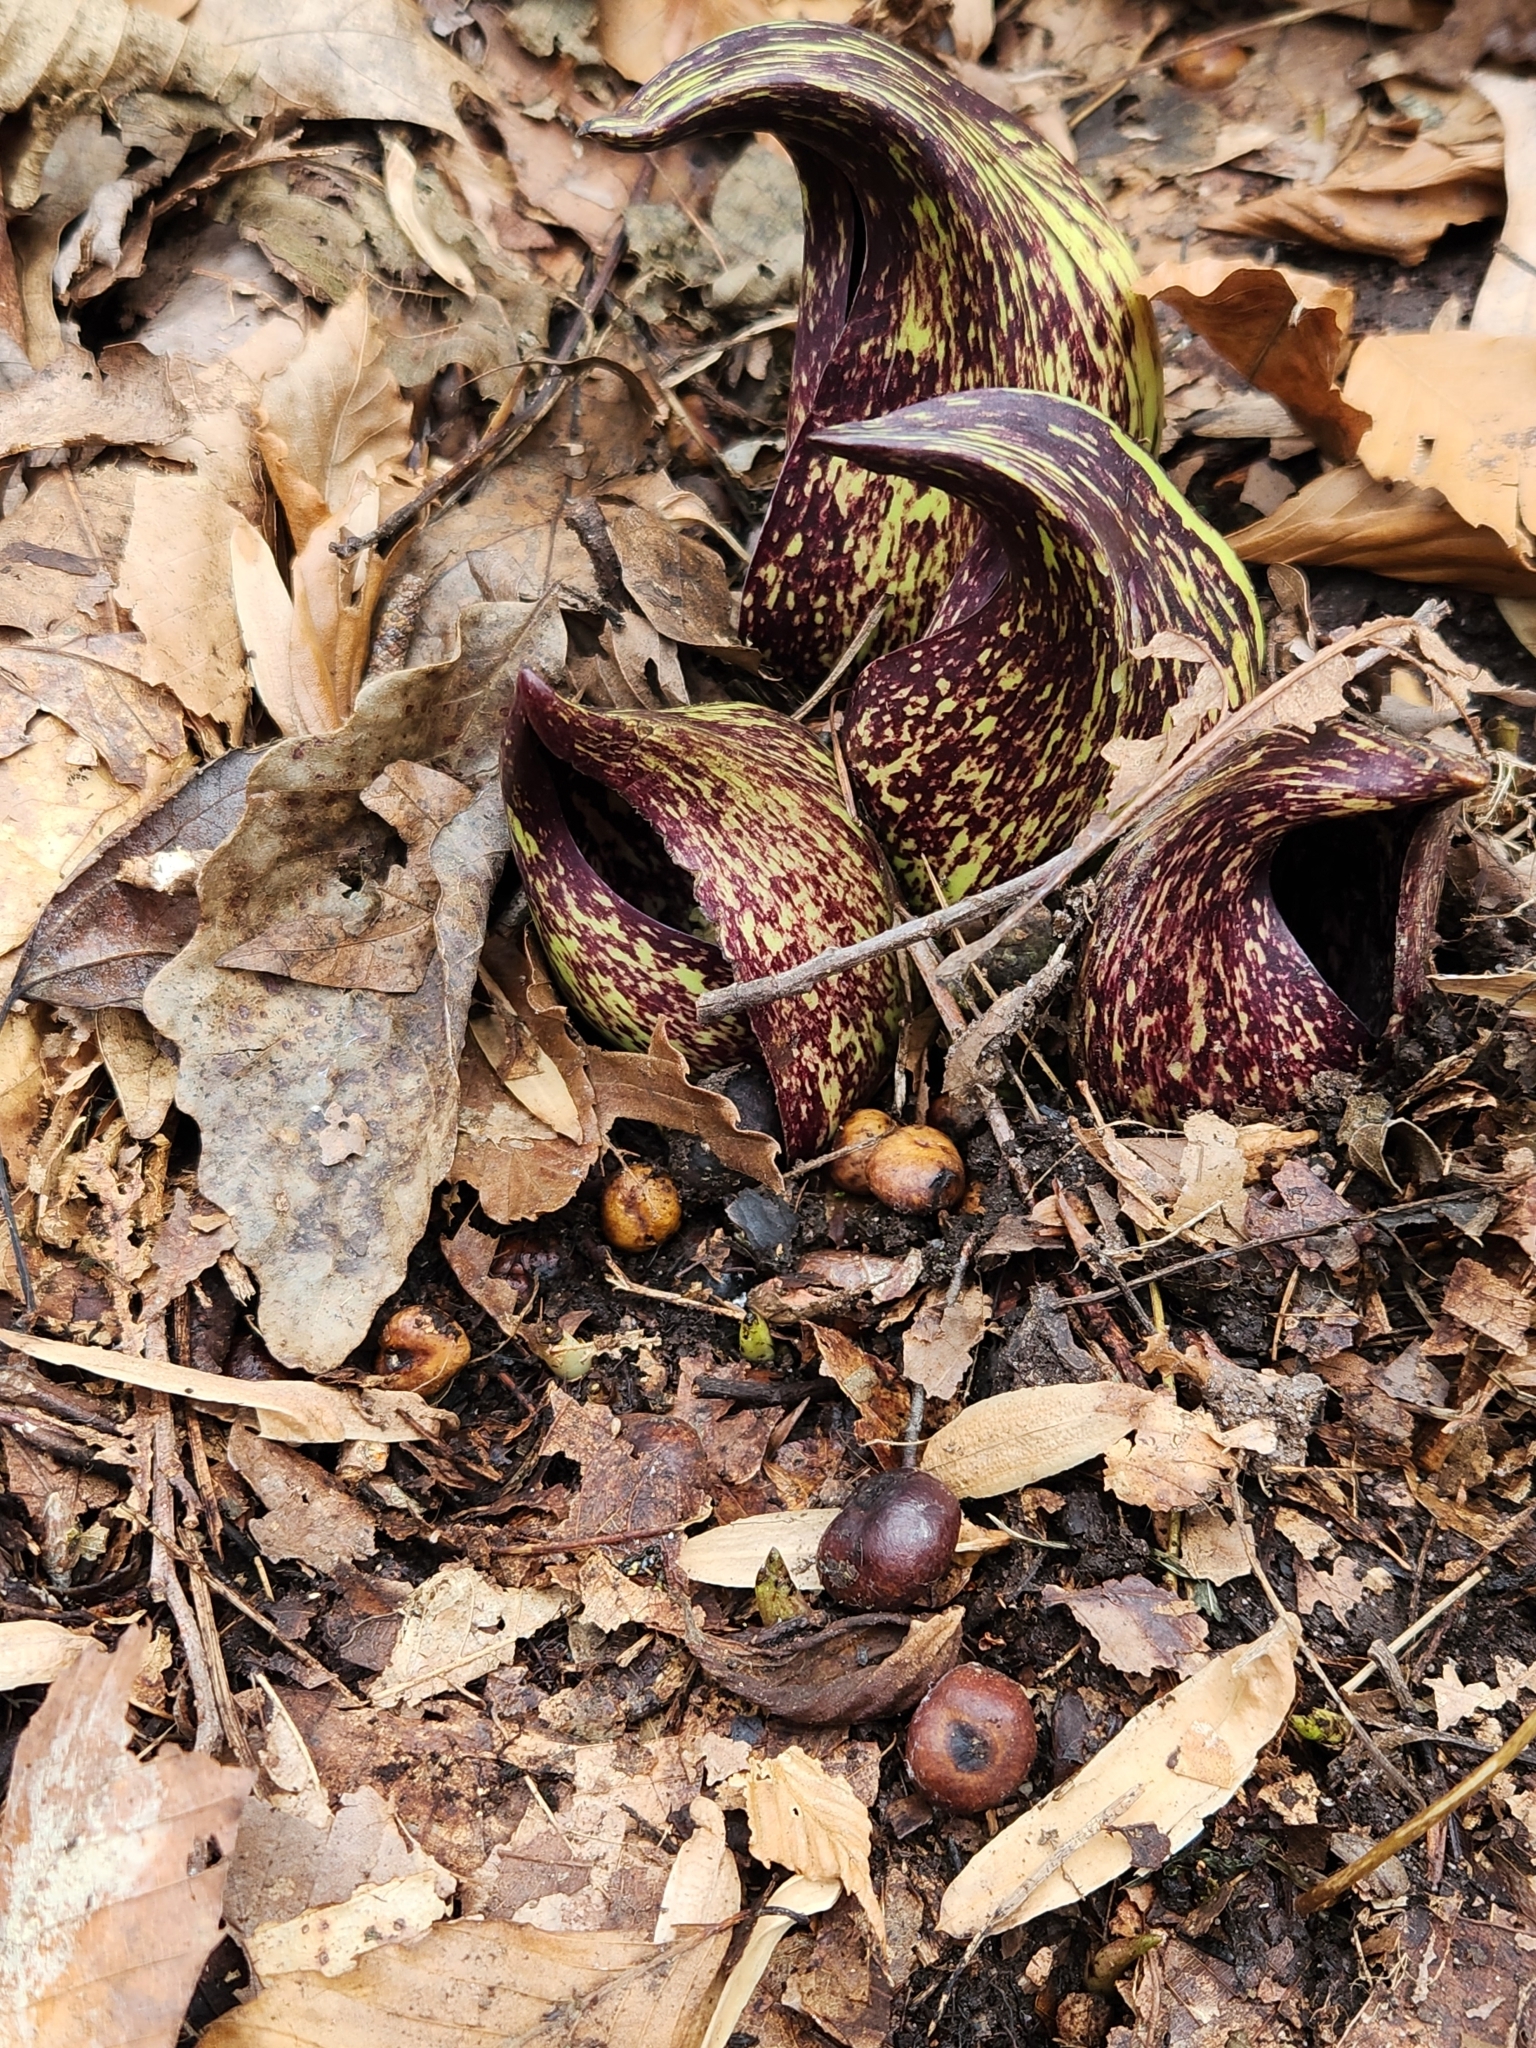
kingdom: Plantae
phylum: Tracheophyta
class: Liliopsida
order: Alismatales
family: Araceae
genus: Symplocarpus
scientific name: Symplocarpus foetidus
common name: Eastern skunk cabbage
